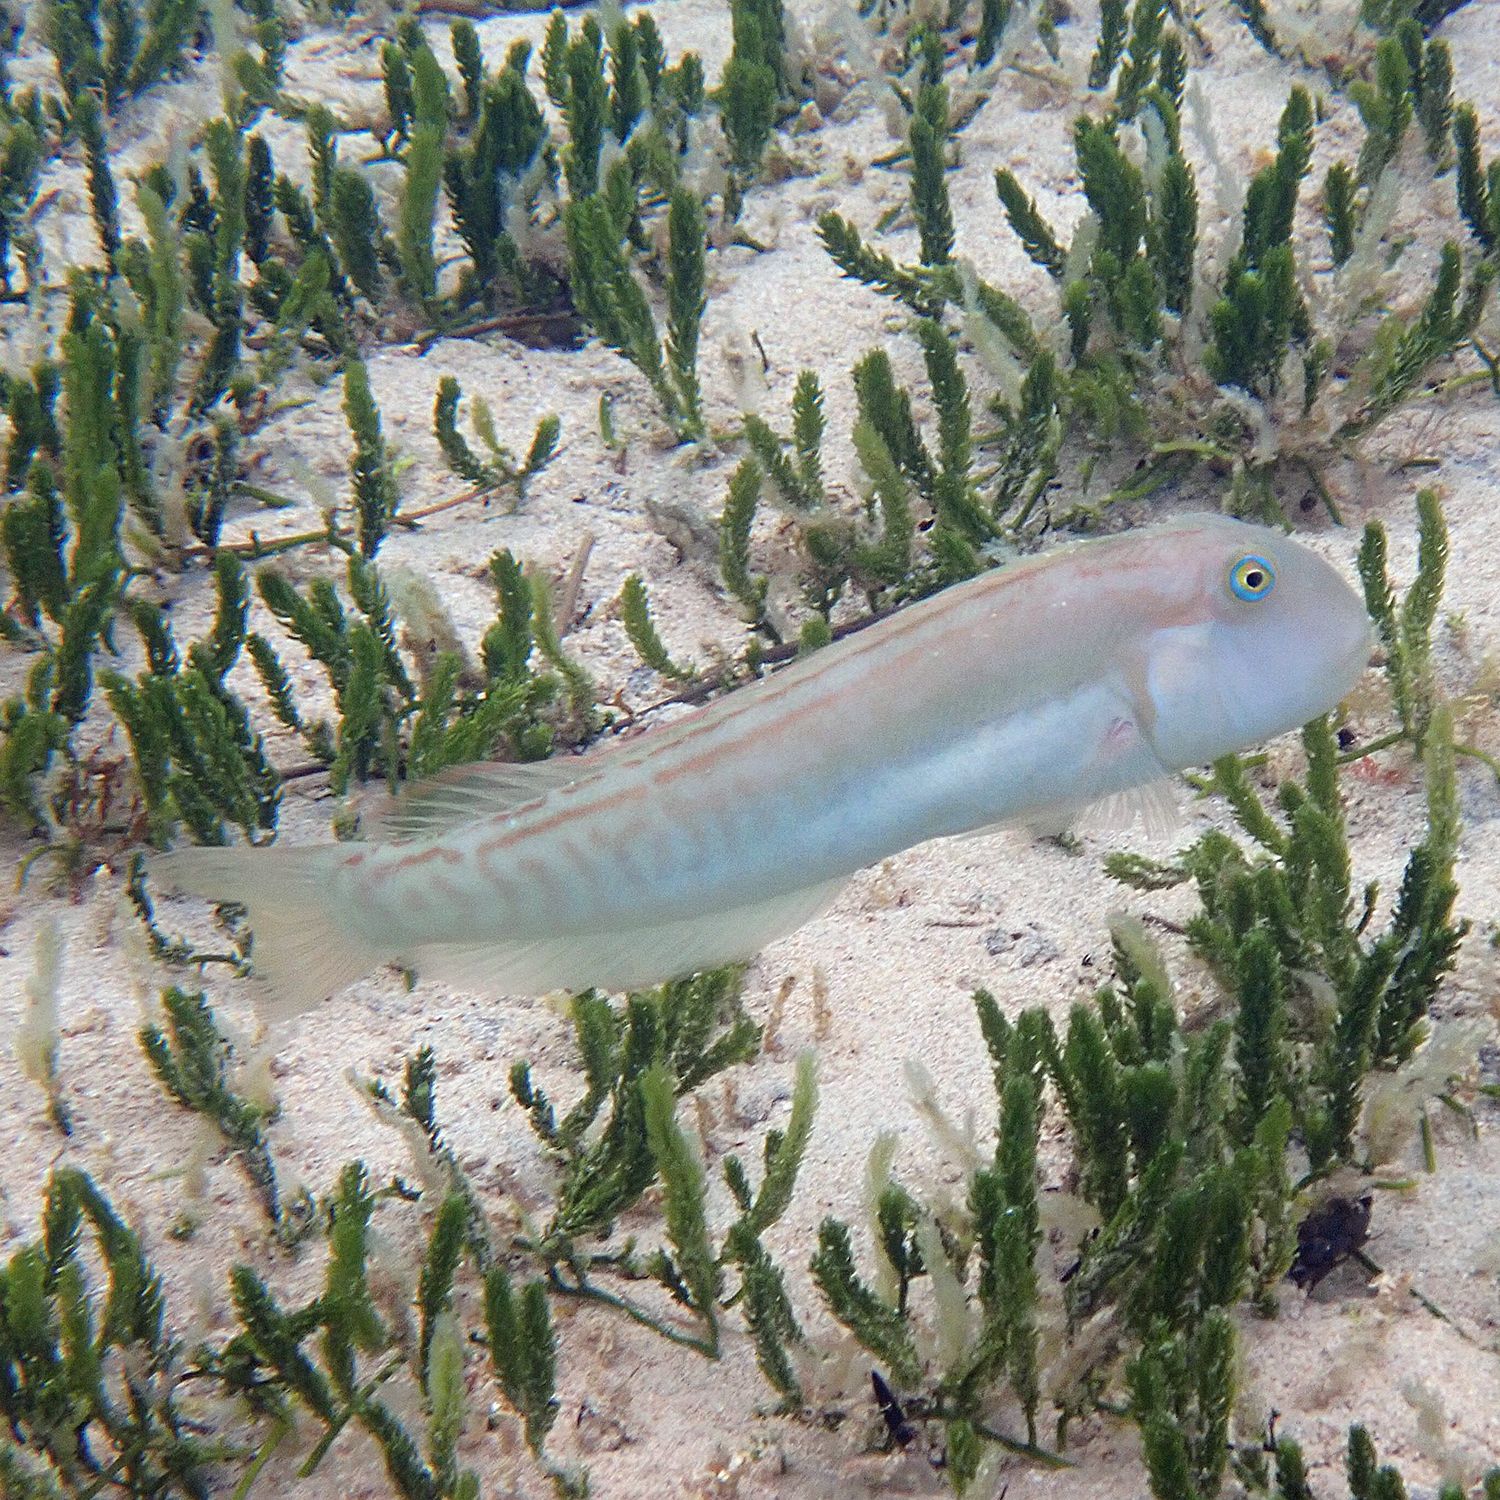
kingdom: Animalia
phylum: Chordata
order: Perciformes
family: Labridae
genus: Cymolutes
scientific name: Cymolutes praetextatus
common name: Knife razorfish
